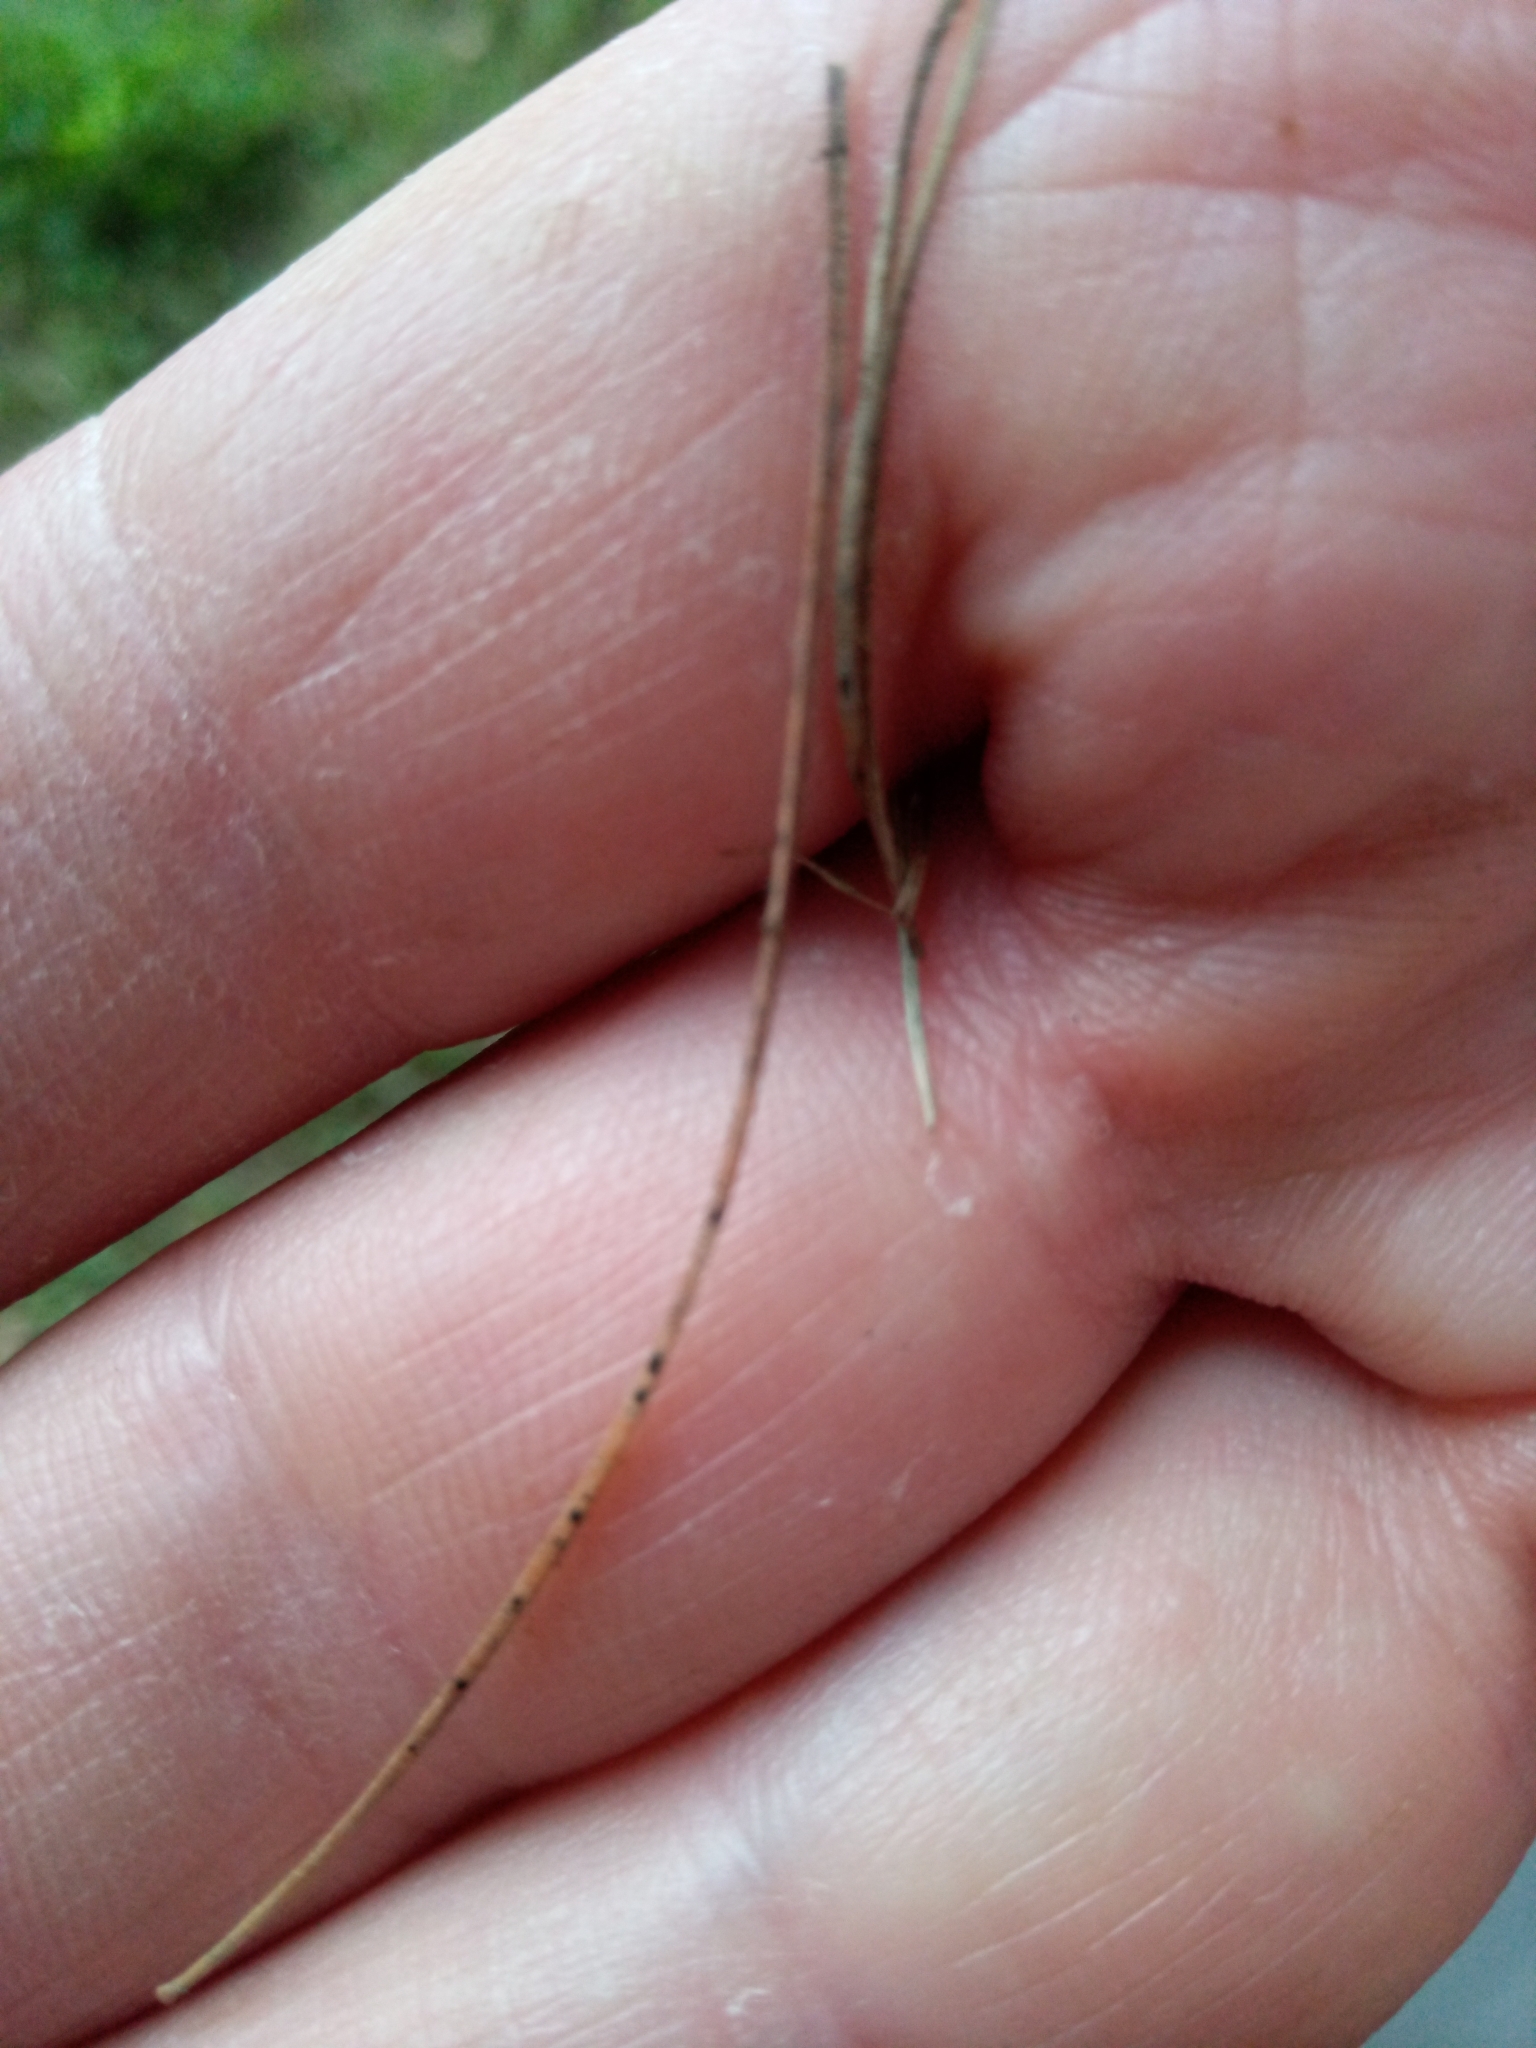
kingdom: Fungi
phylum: Ascomycota
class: Leotiomycetes
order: Rhytismatales
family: Rhytismataceae
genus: Lophodermium
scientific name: Lophodermium
